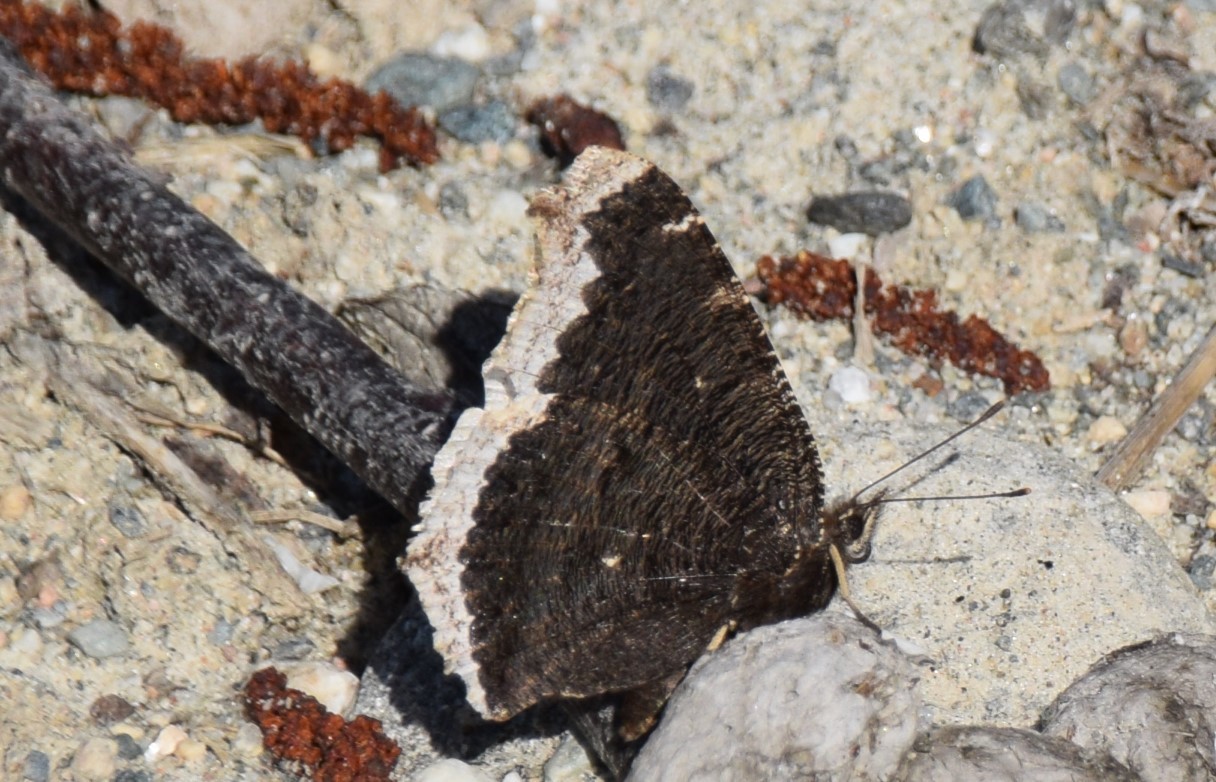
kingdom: Animalia
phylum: Arthropoda
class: Insecta
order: Lepidoptera
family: Nymphalidae
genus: Nymphalis
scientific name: Nymphalis antiopa
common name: Camberwell beauty
